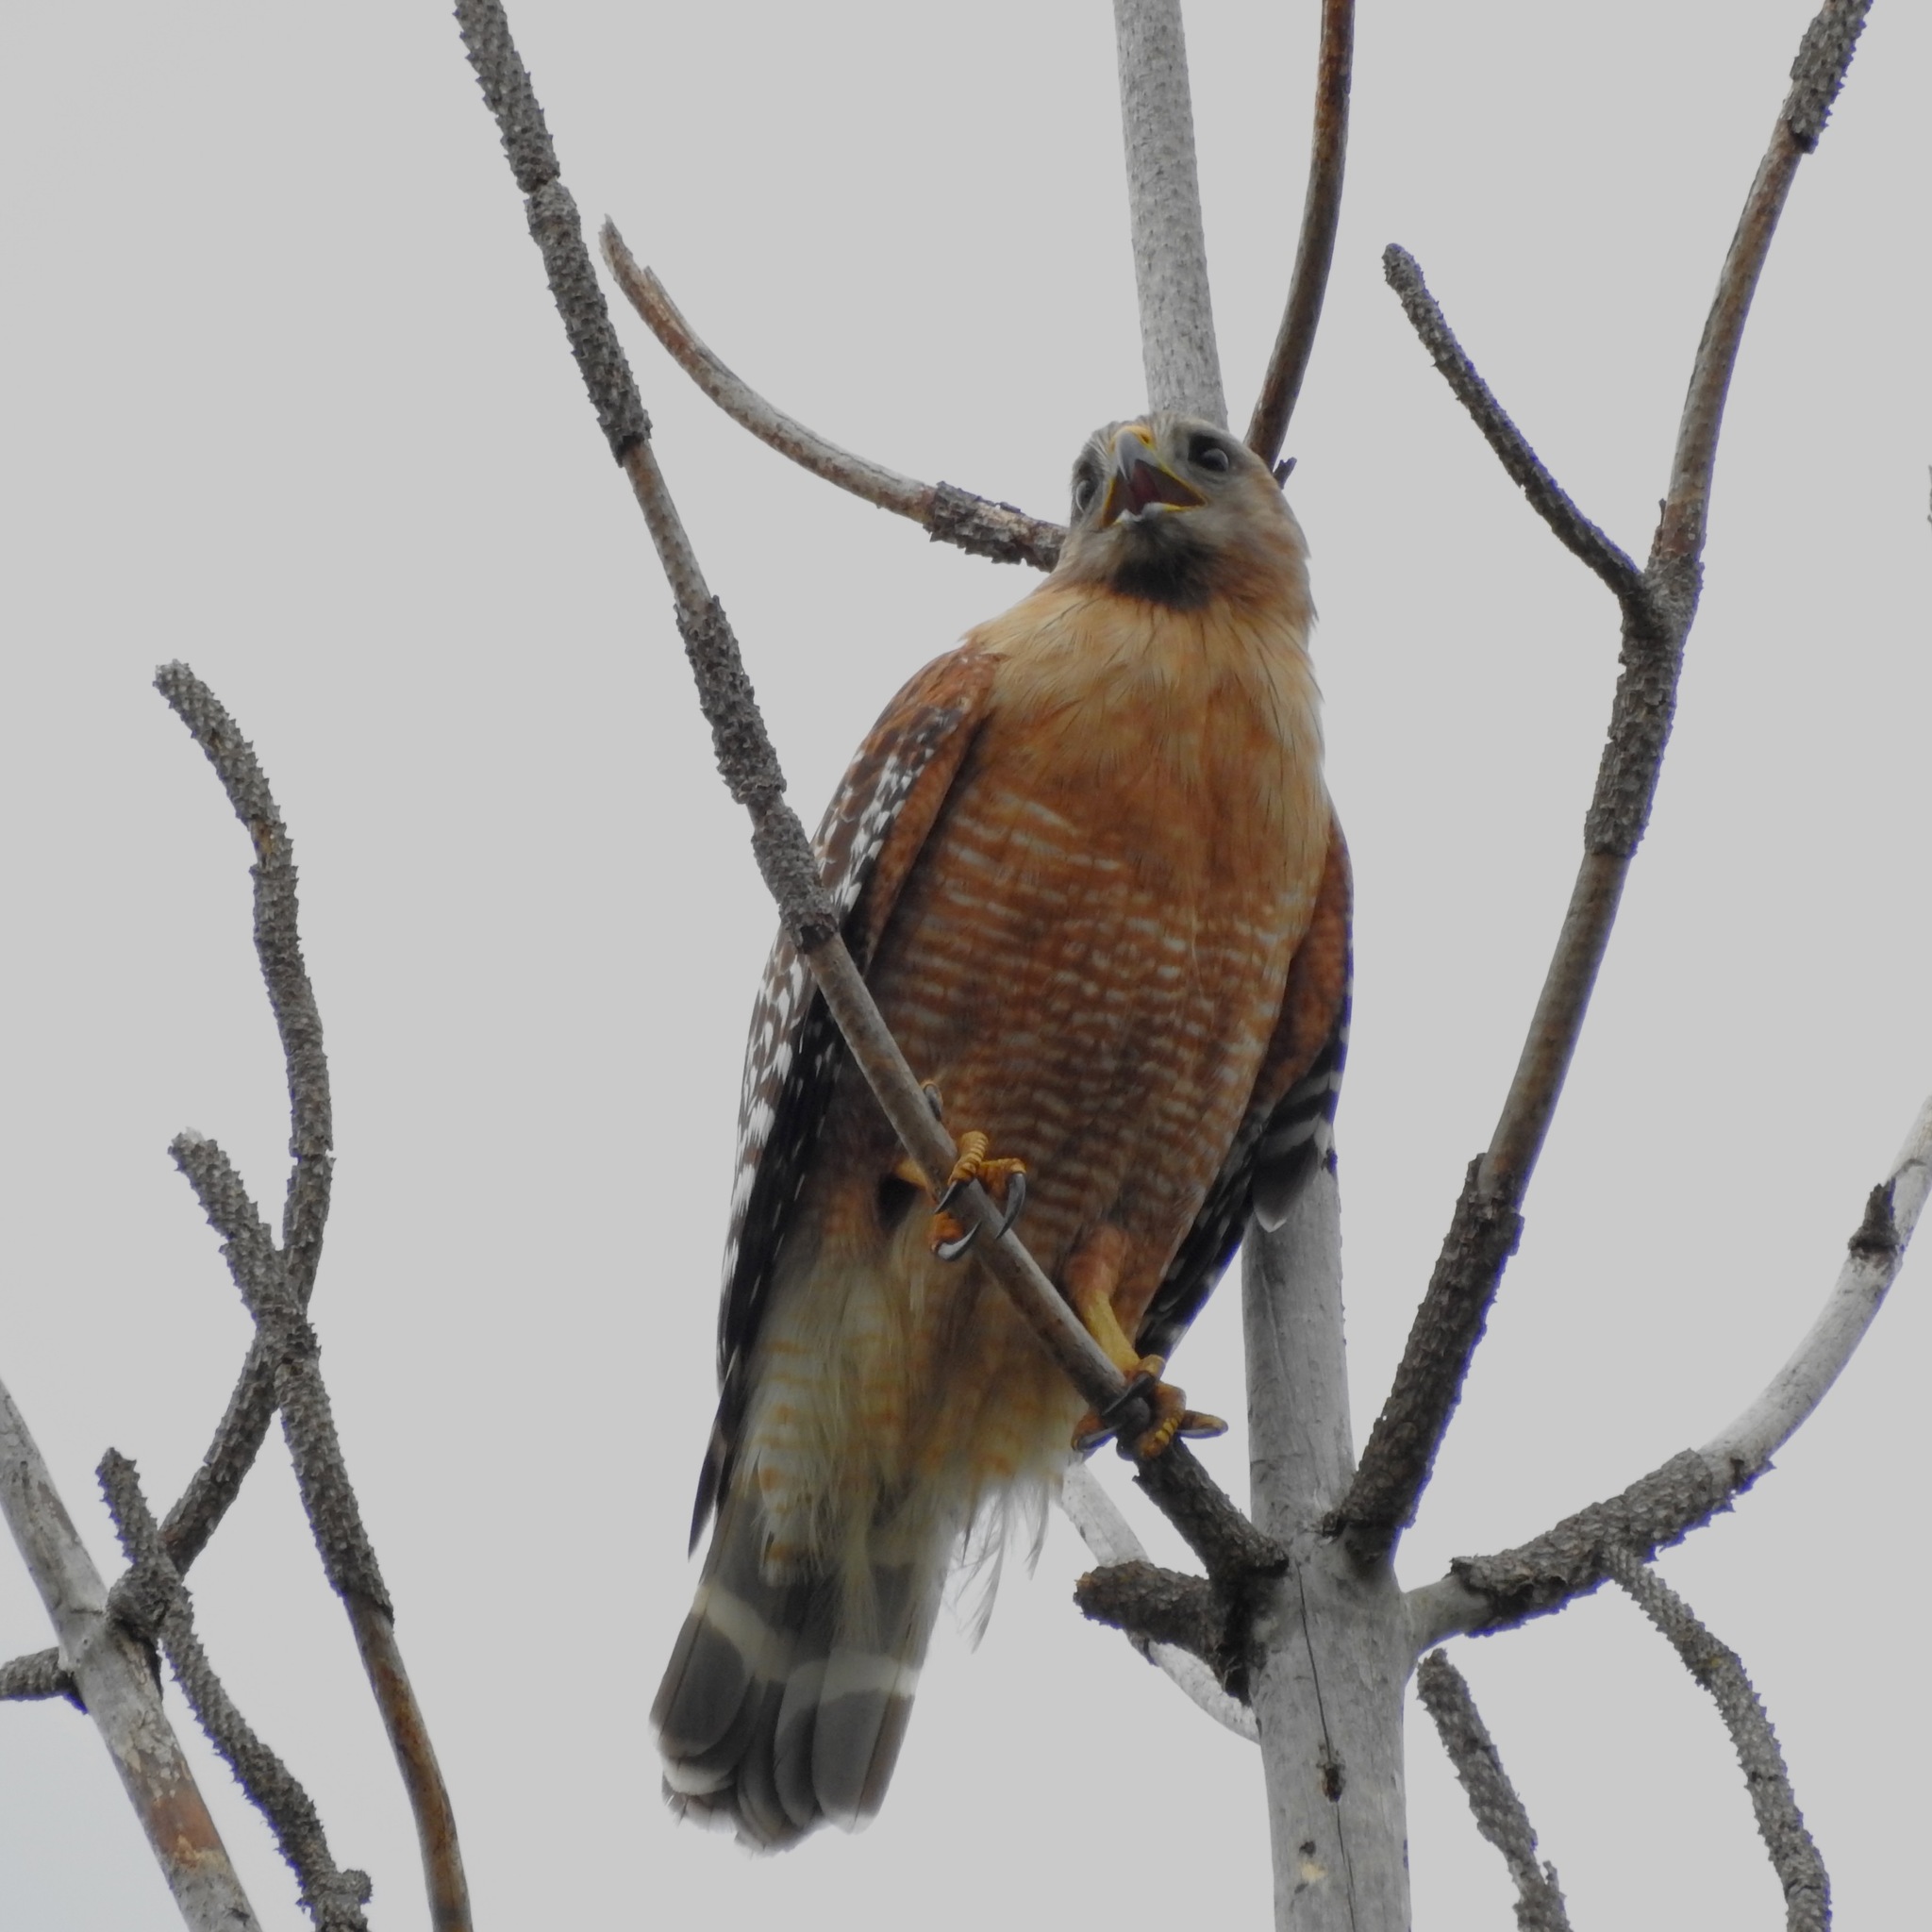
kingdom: Animalia
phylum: Chordata
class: Aves
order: Accipitriformes
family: Accipitridae
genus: Buteo
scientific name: Buteo lineatus
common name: Red-shouldered hawk
